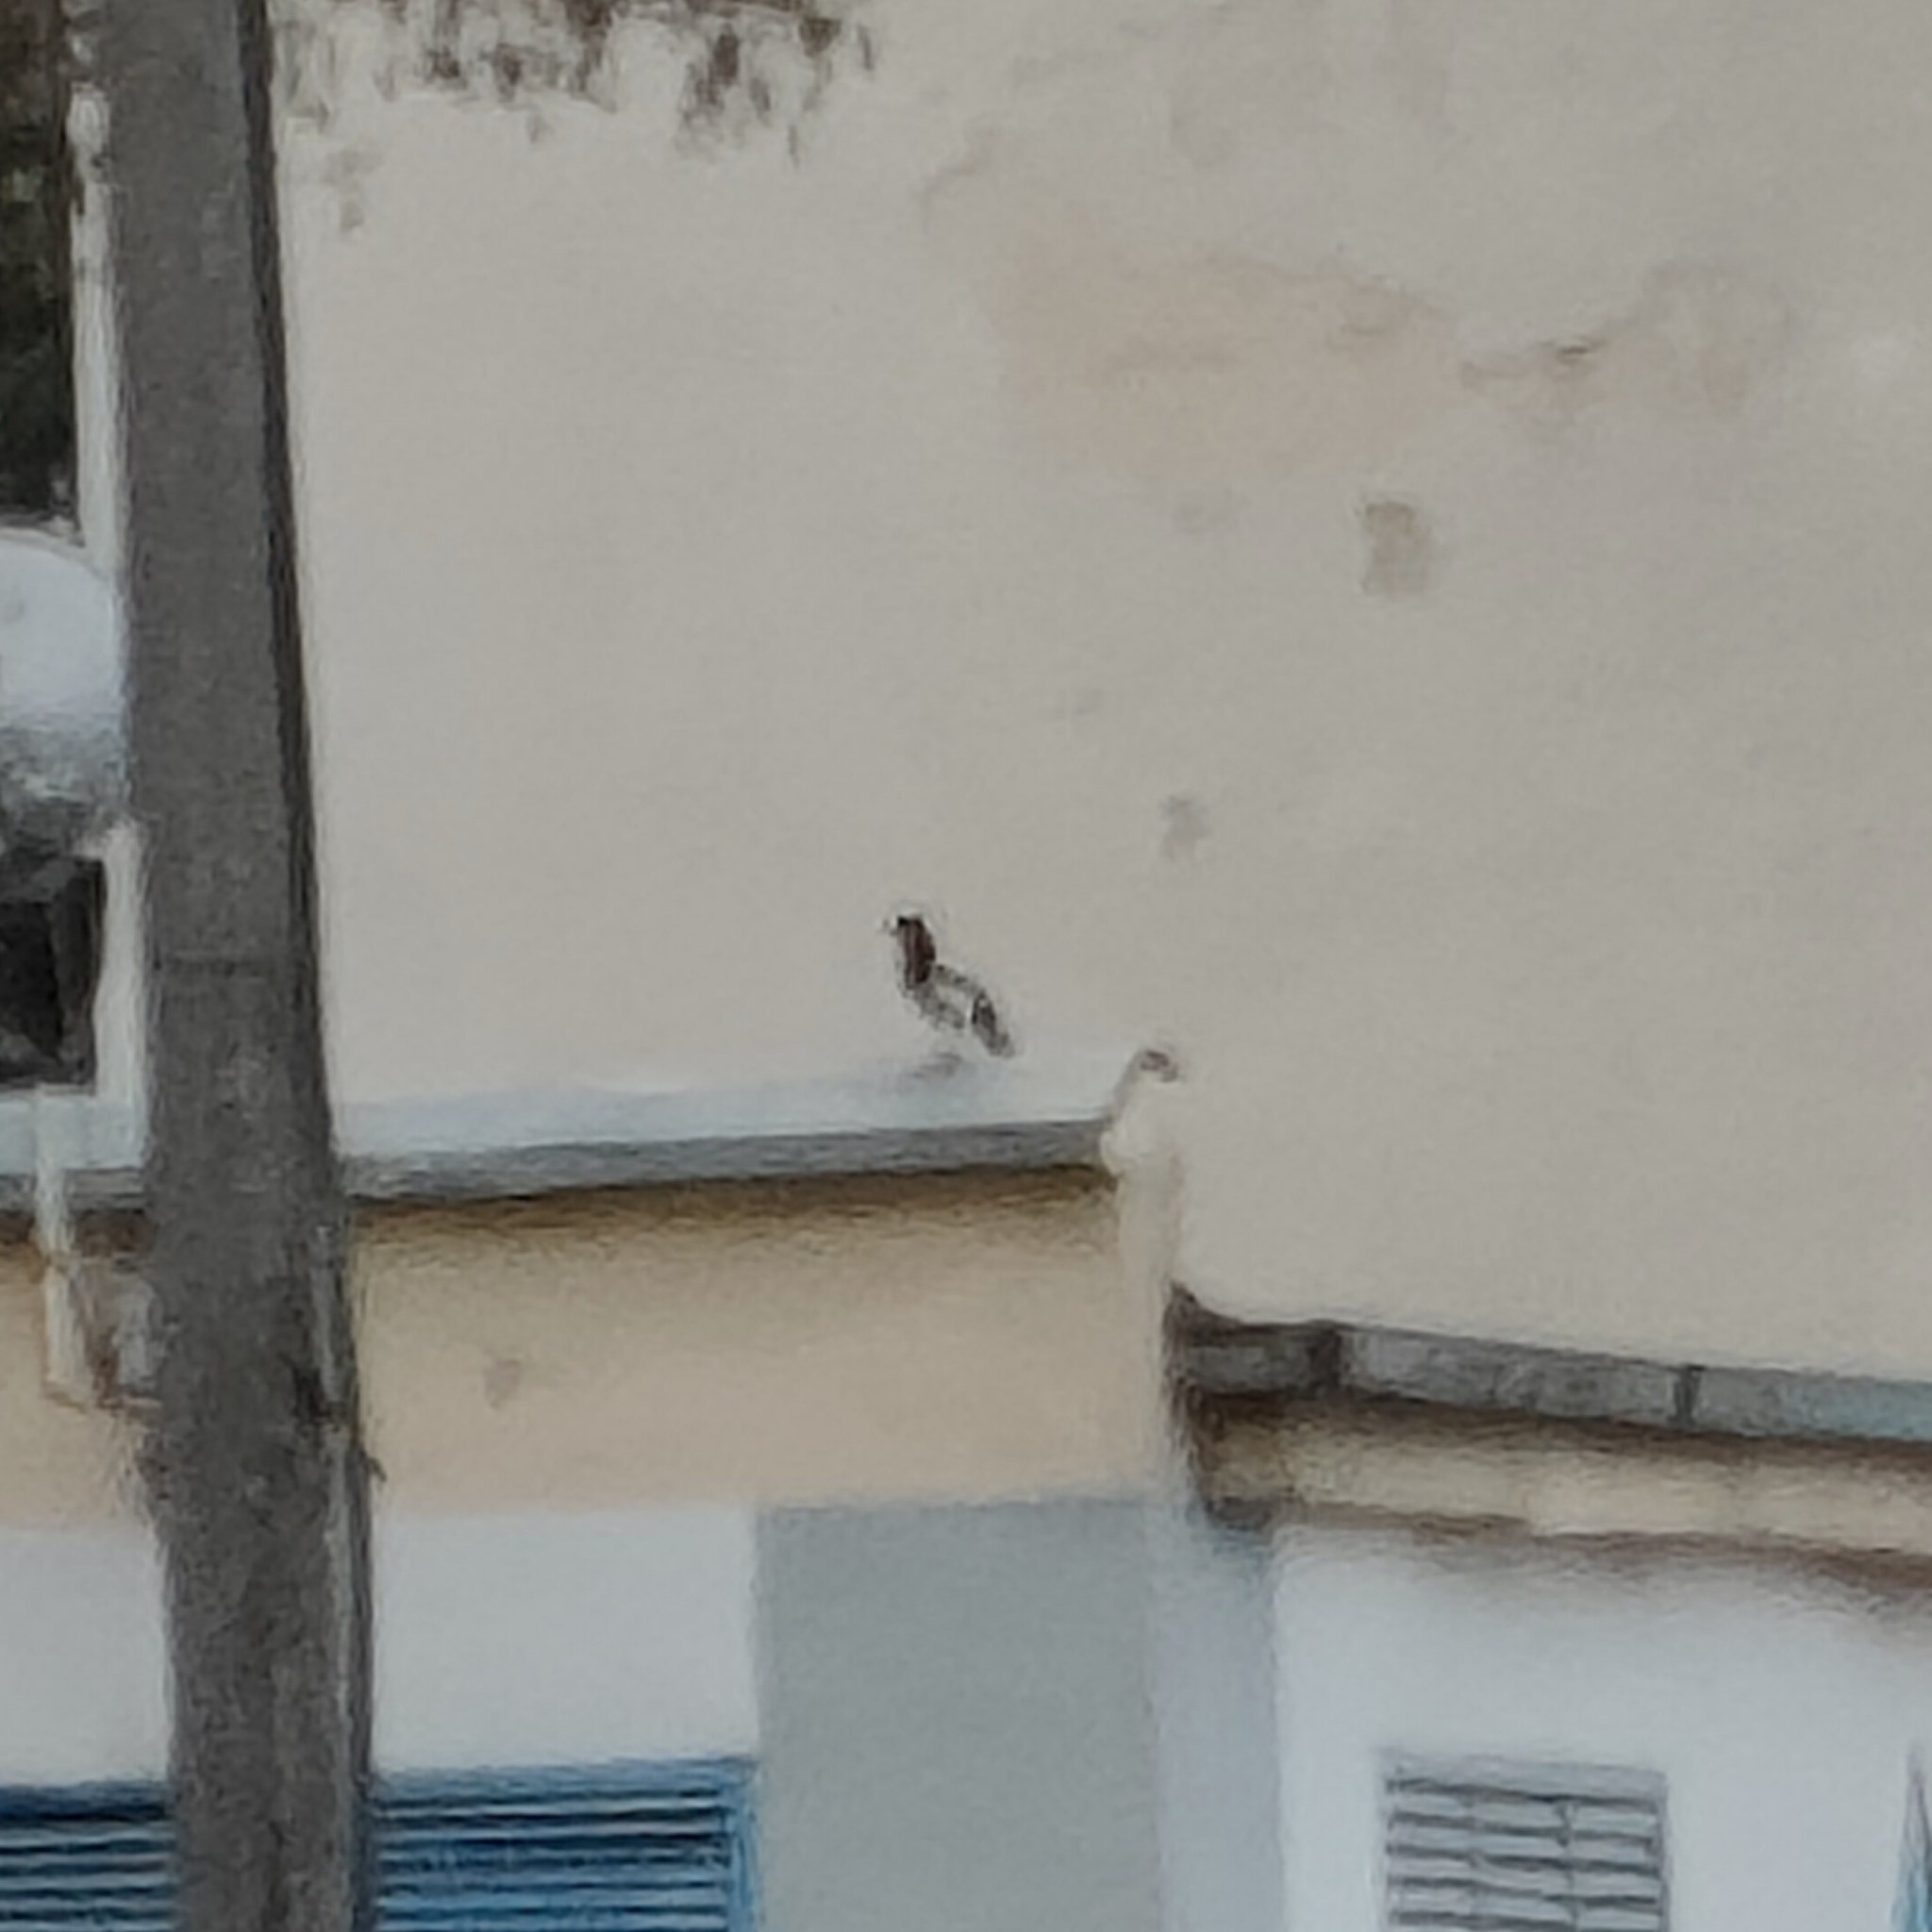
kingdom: Animalia
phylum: Chordata
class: Aves
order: Passeriformes
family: Corvidae
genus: Pica
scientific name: Pica pica
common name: Eurasian magpie
